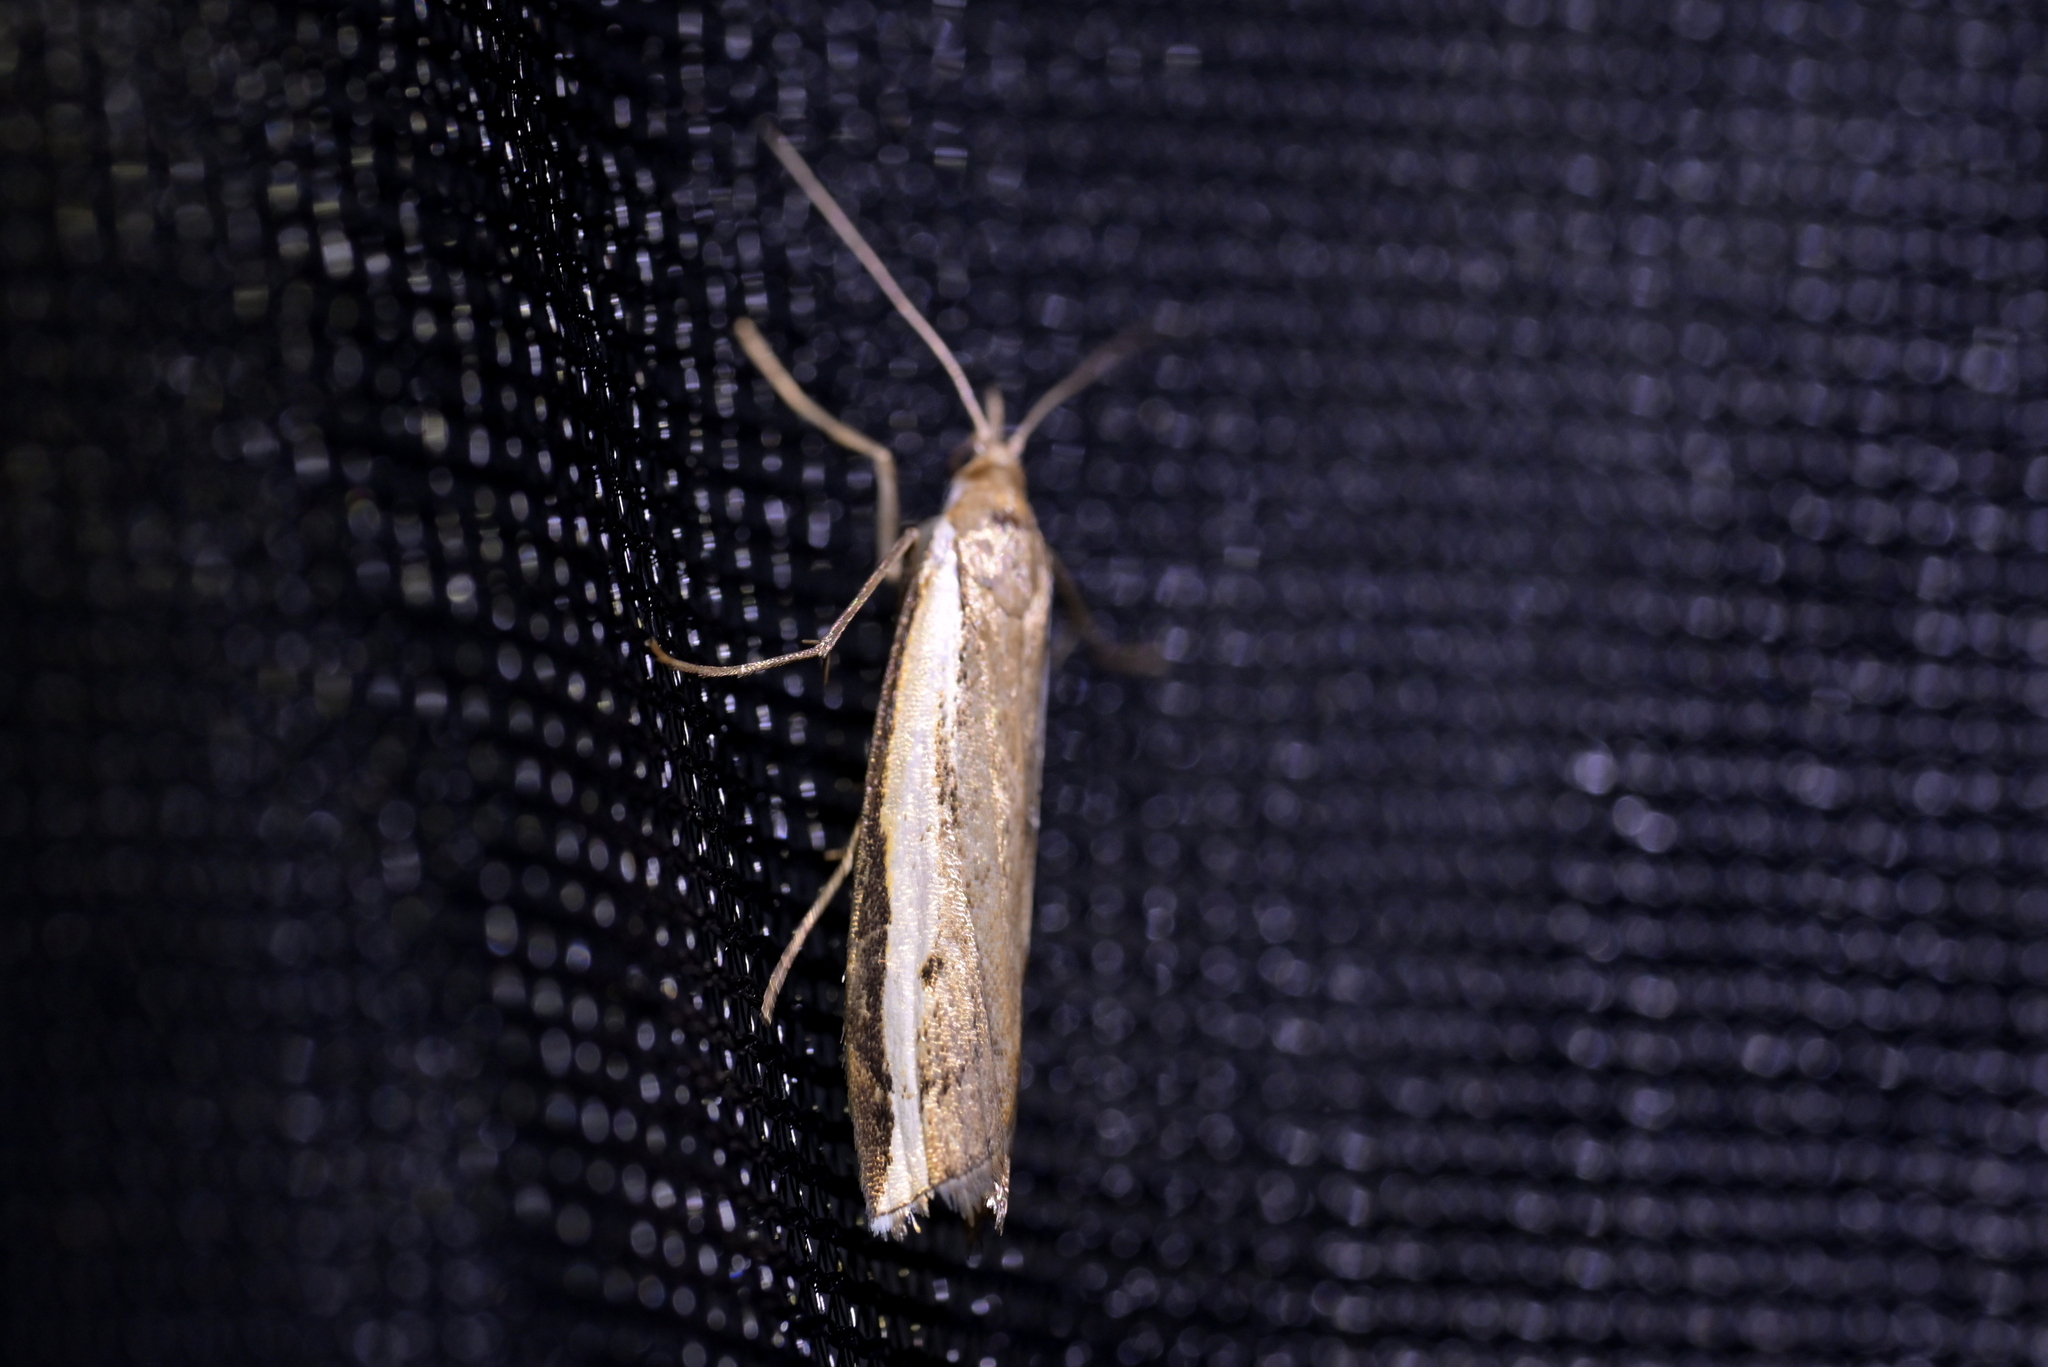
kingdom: Animalia
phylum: Arthropoda
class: Insecta
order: Lepidoptera
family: Crambidae
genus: Orocrambus
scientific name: Orocrambus flexuosellus
